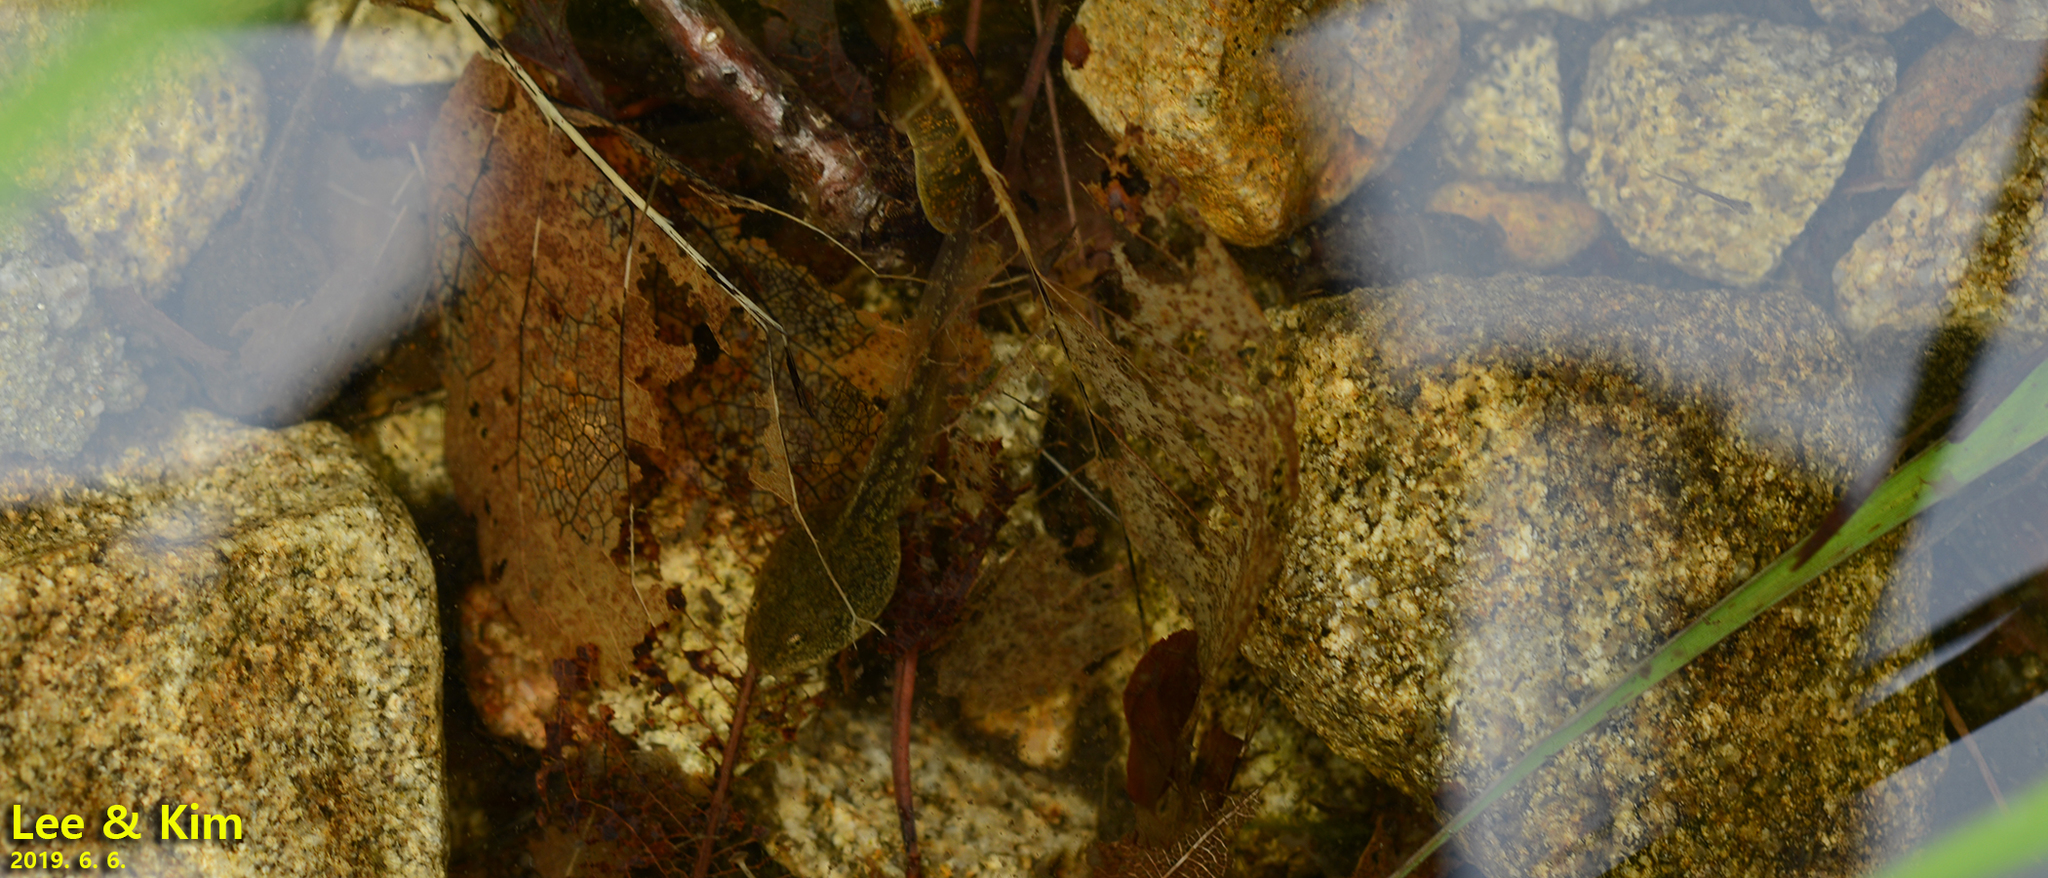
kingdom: Animalia
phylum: Chordata
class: Amphibia
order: Anura
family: Ranidae
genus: Rana
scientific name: Rana huanrenensis
